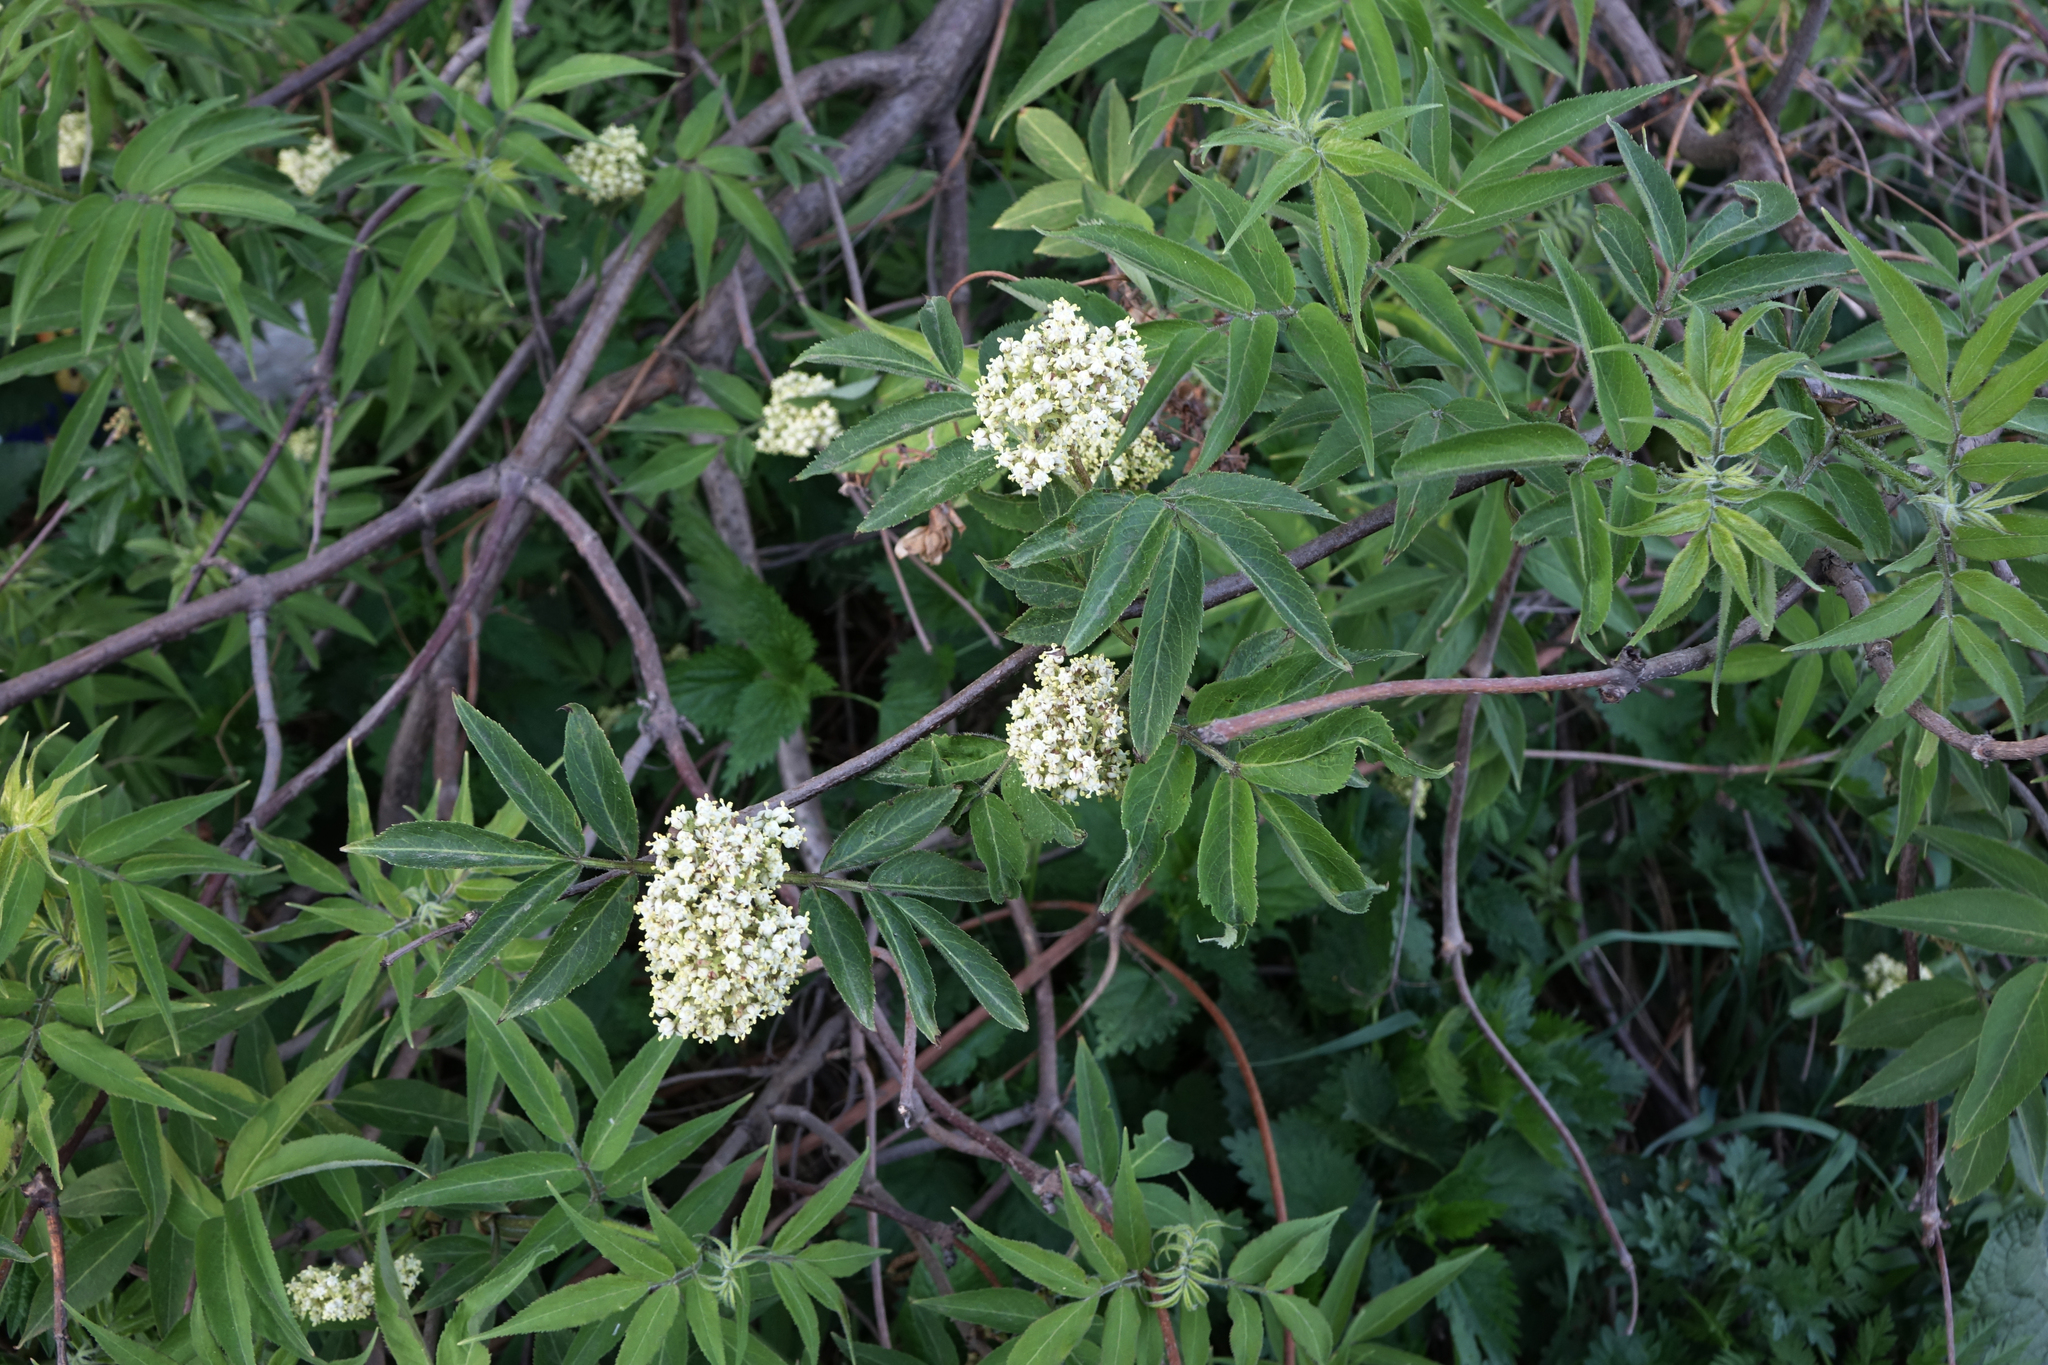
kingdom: Plantae
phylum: Tracheophyta
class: Magnoliopsida
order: Dipsacales
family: Viburnaceae
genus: Sambucus
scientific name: Sambucus sibirica
